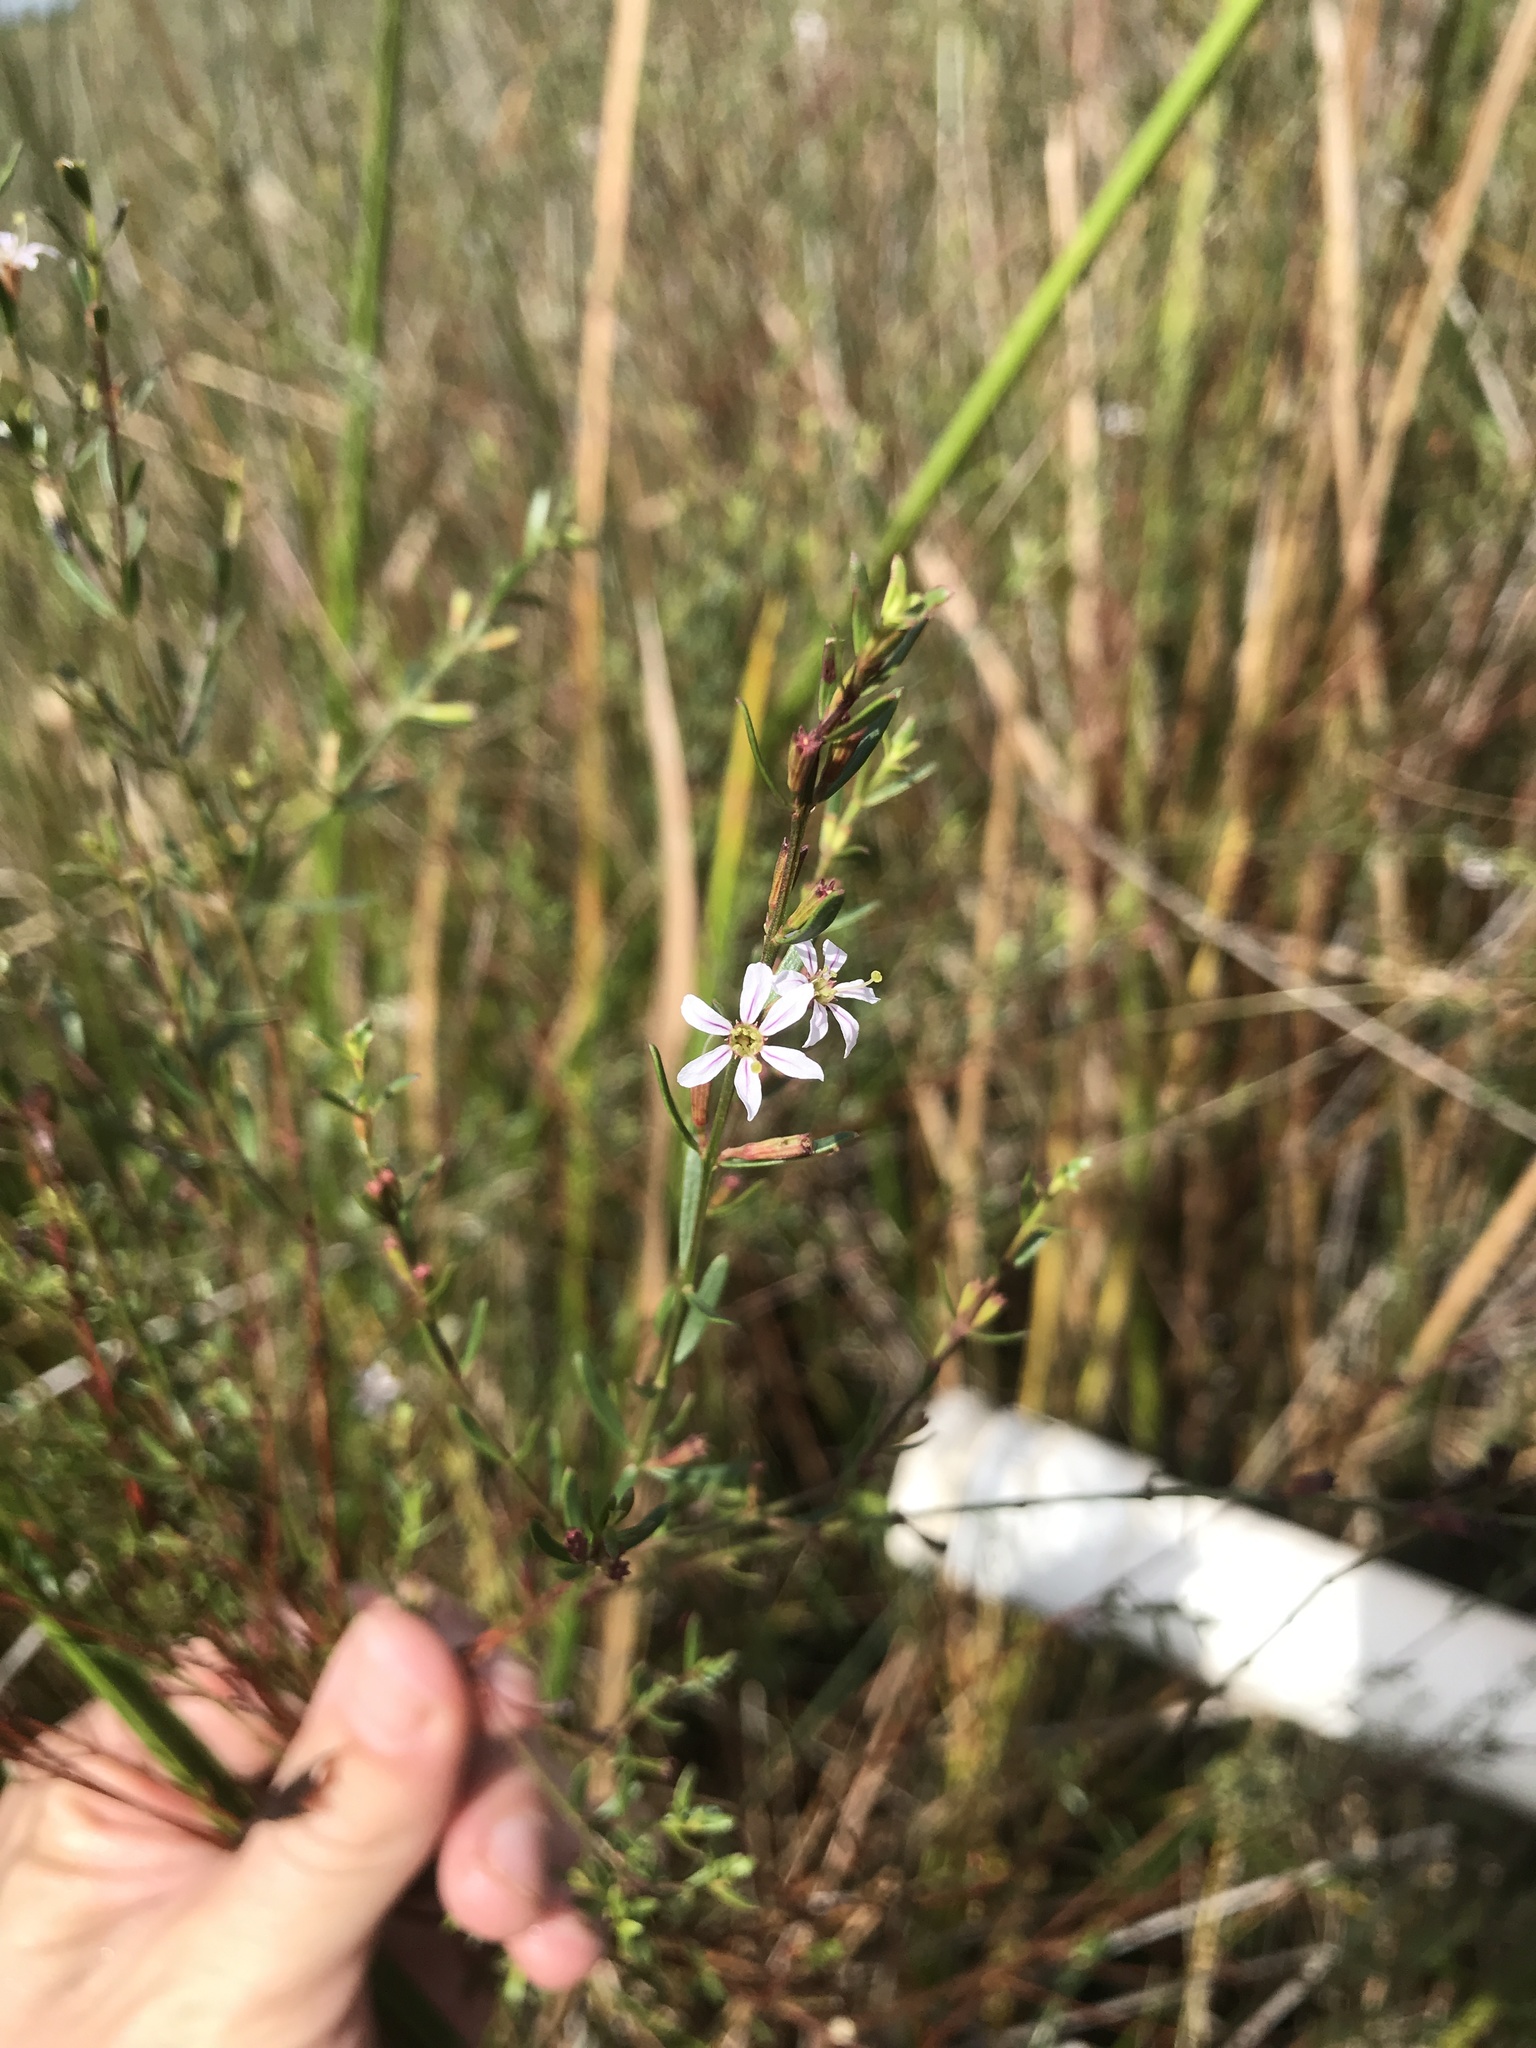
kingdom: Plantae
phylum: Tracheophyta
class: Magnoliopsida
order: Myrtales
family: Lythraceae
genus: Lythrum
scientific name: Lythrum lineare
